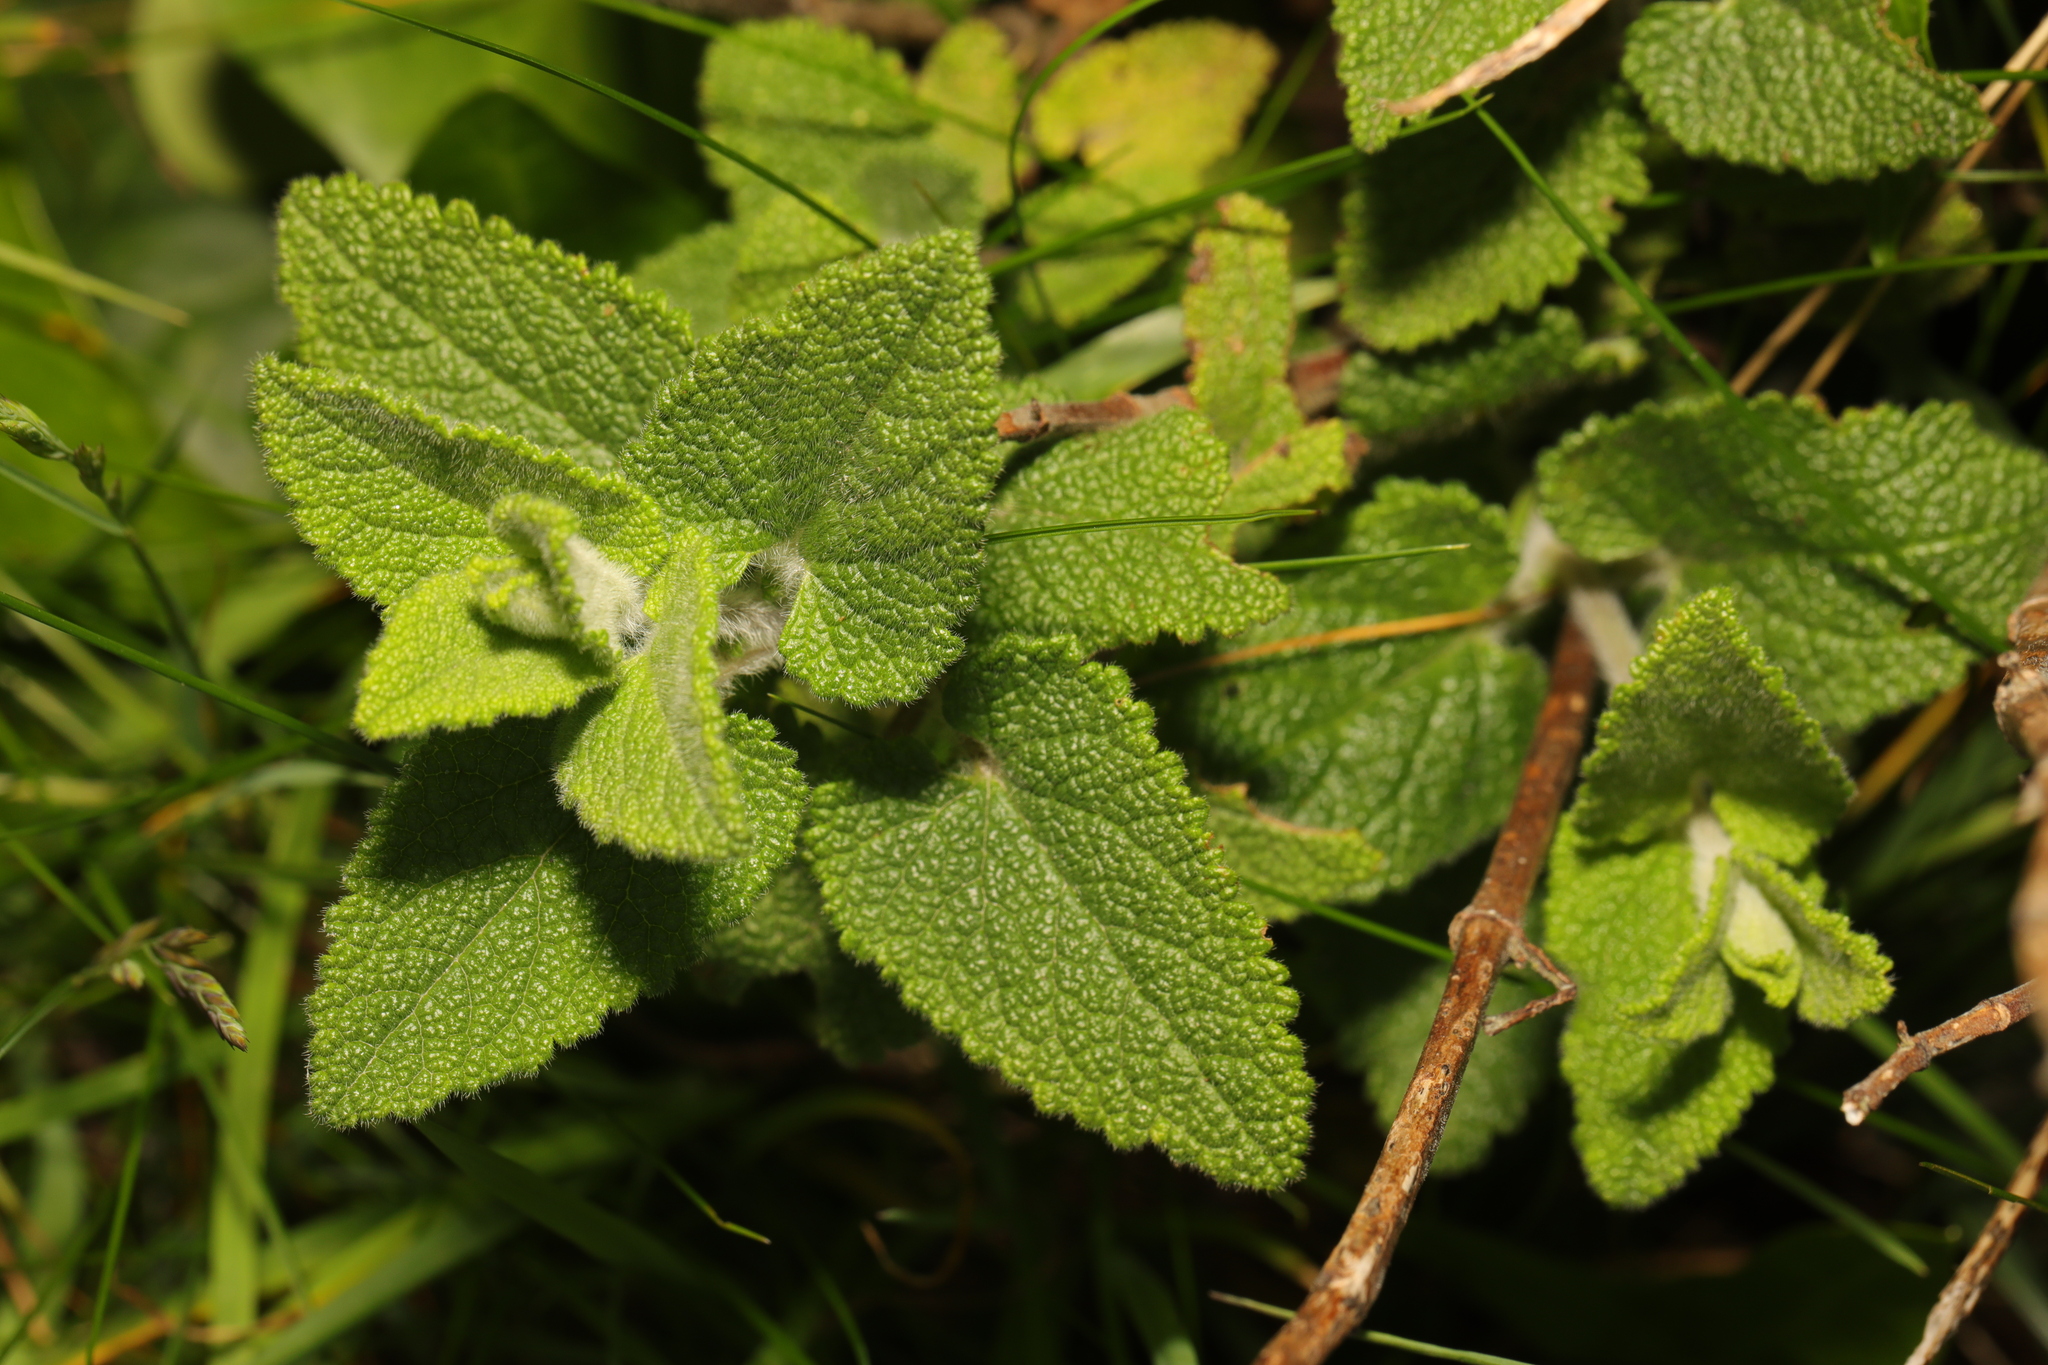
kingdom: Plantae
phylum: Tracheophyta
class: Magnoliopsida
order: Lamiales
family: Lamiaceae
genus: Teucrium
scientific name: Teucrium scorodonia
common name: Woodland germander
